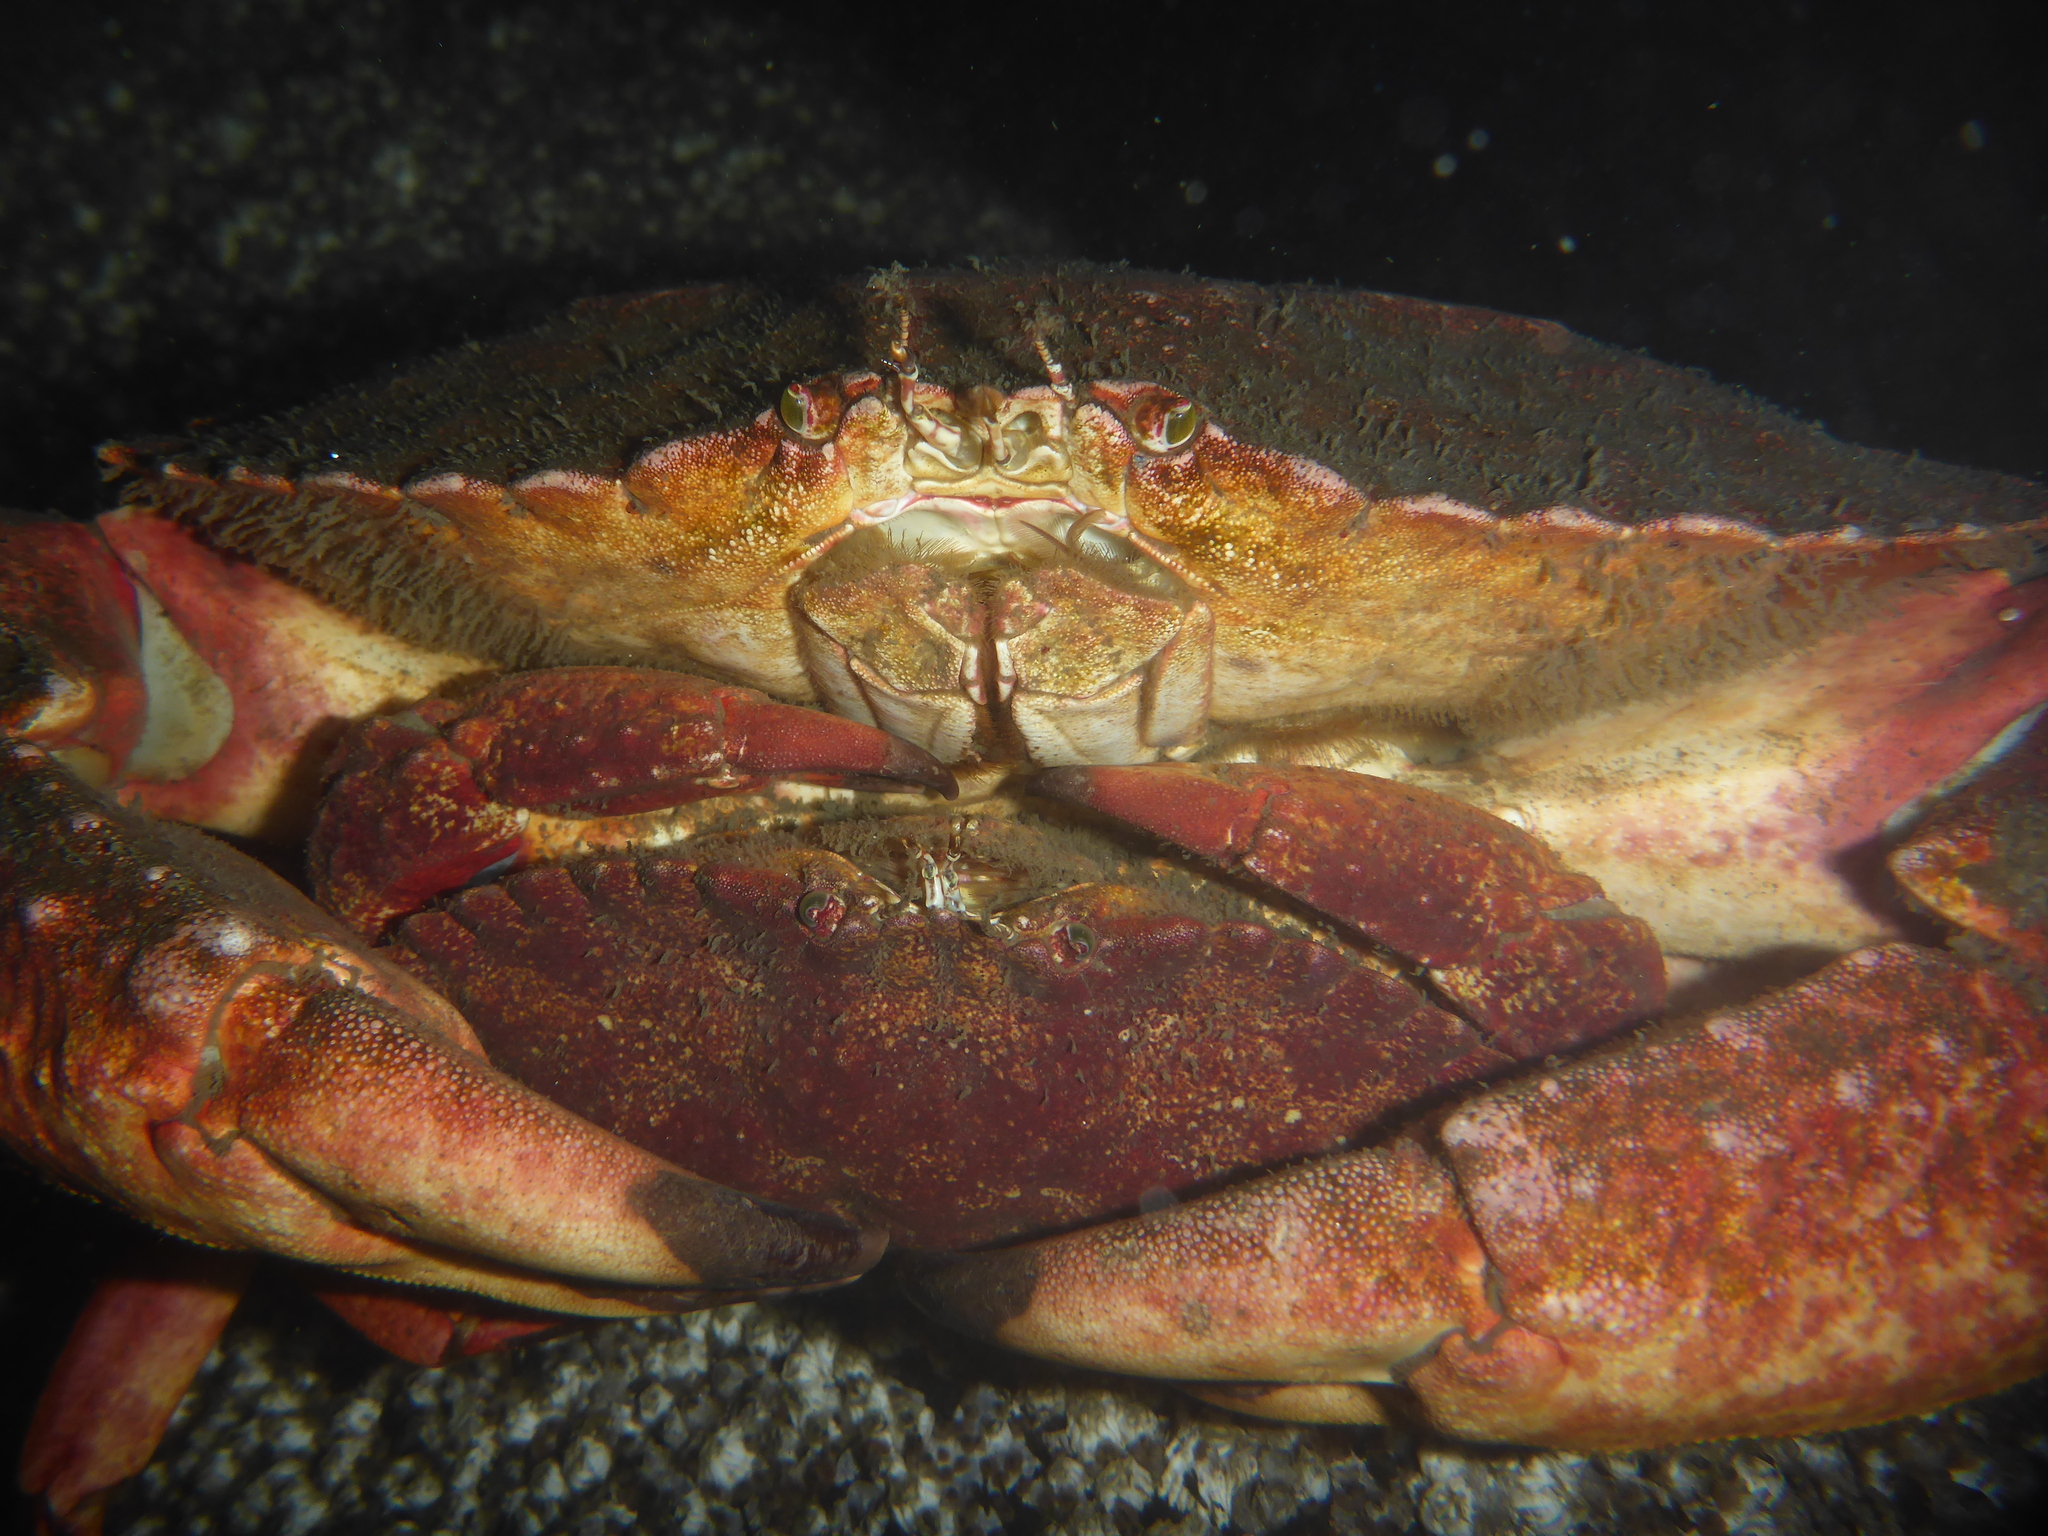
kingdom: Animalia
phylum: Arthropoda
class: Malacostraca
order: Decapoda
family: Cancridae
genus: Cancer
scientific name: Cancer productus
